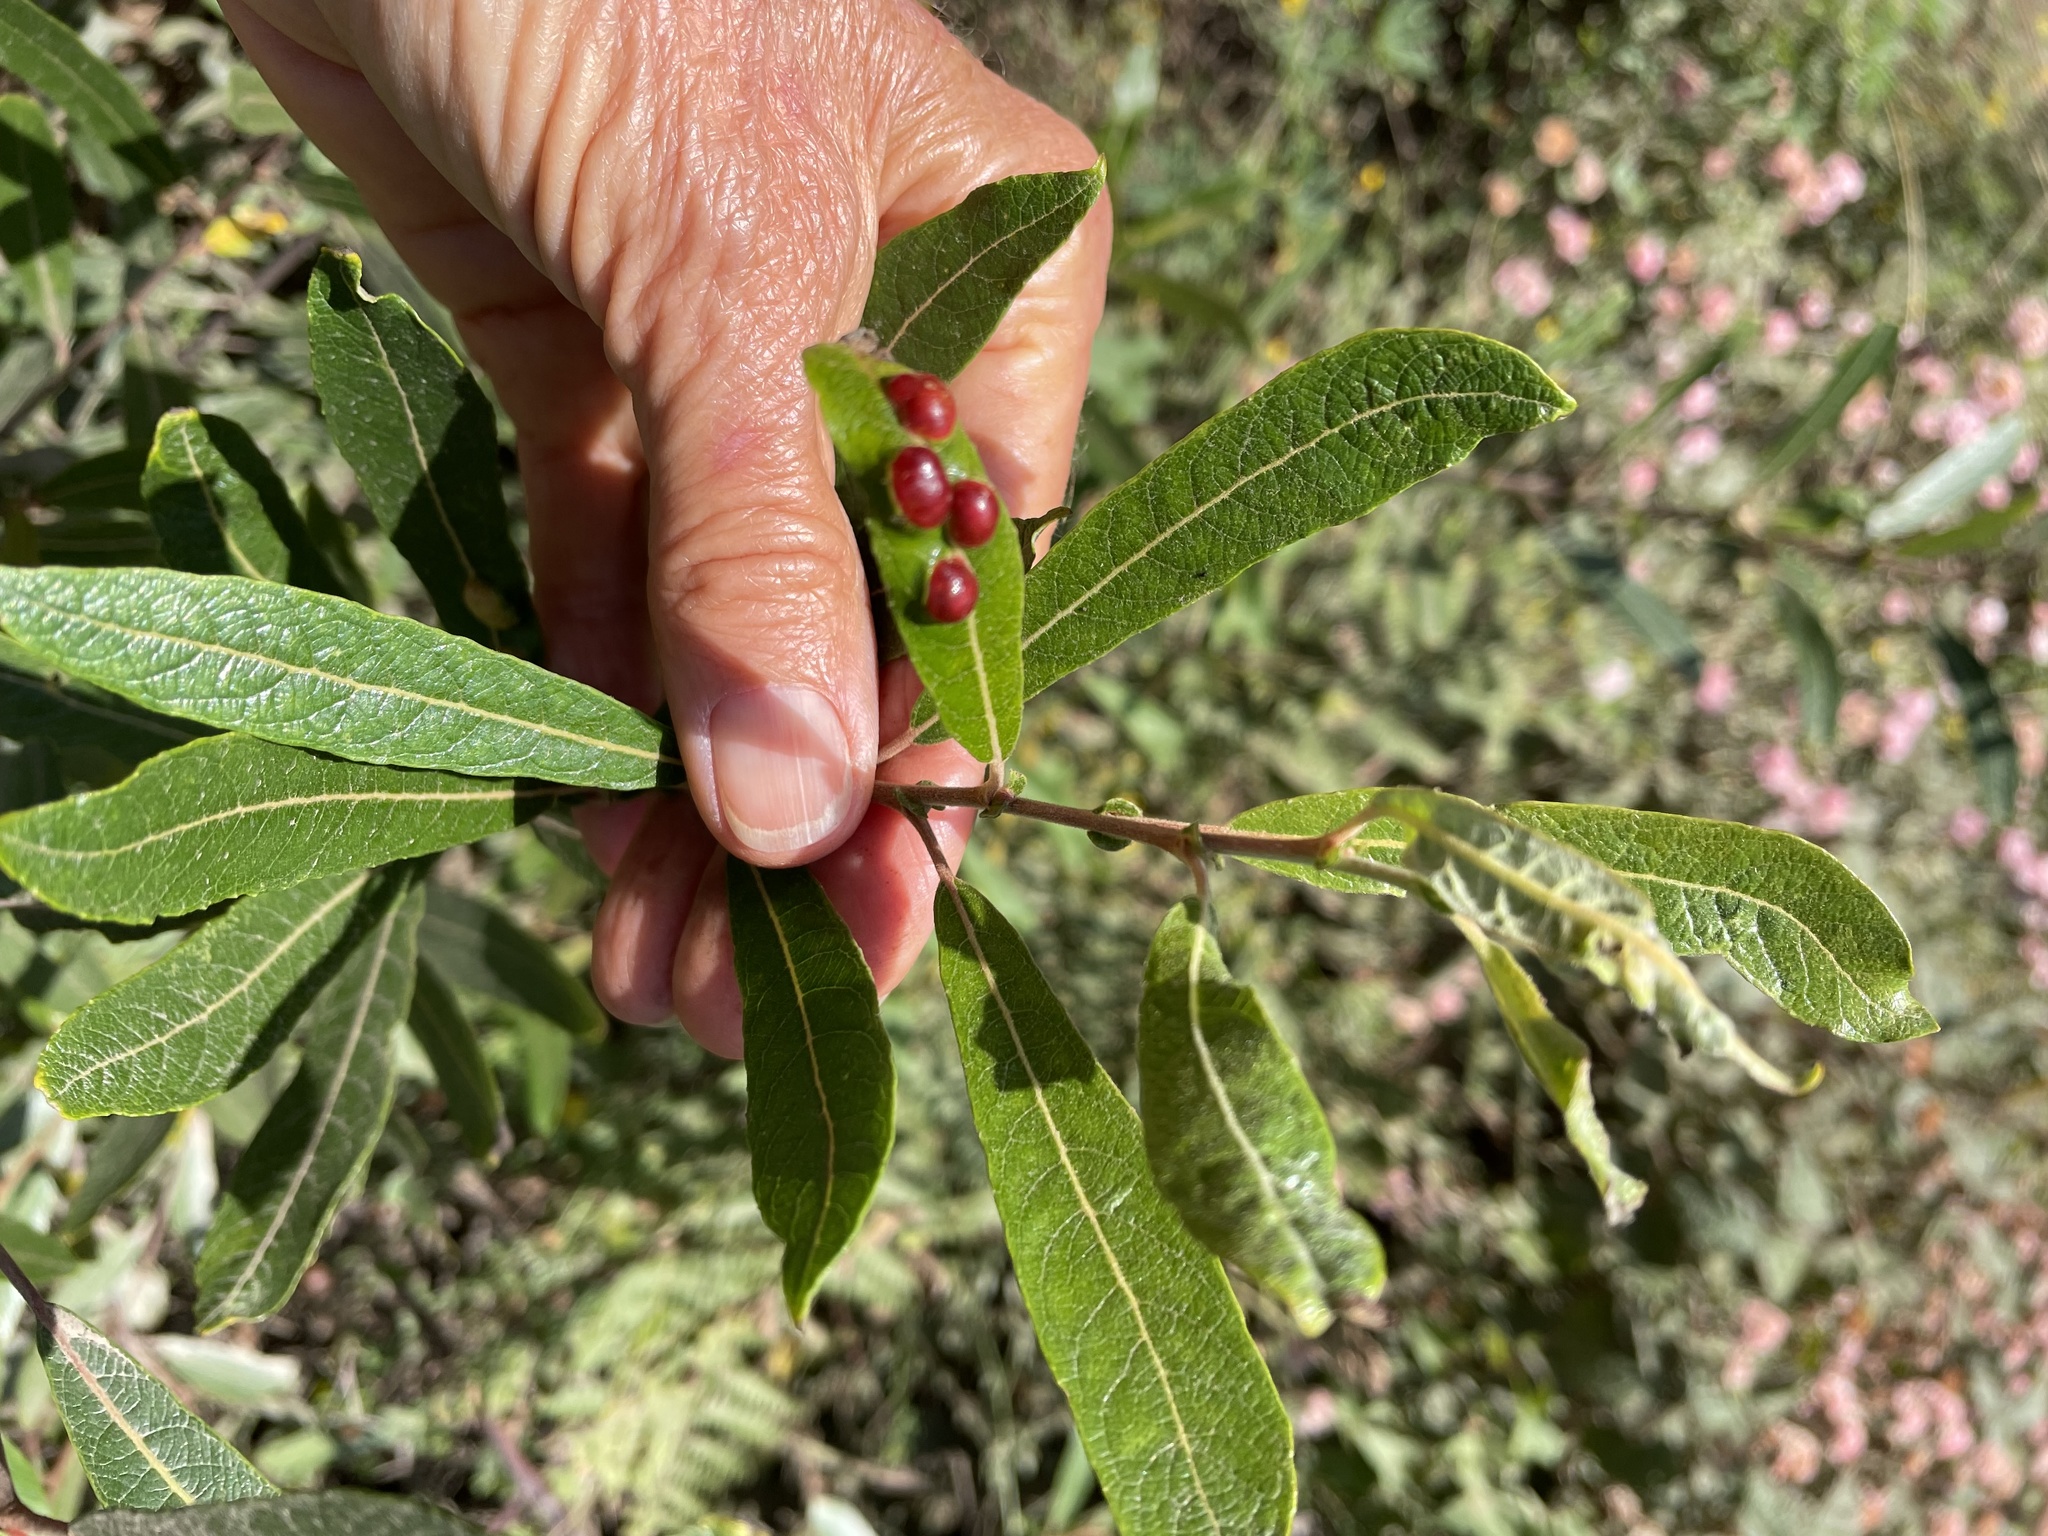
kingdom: Animalia
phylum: Arthropoda
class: Insecta
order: Hymenoptera
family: Tenthredinidae
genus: Euura
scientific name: Euura
